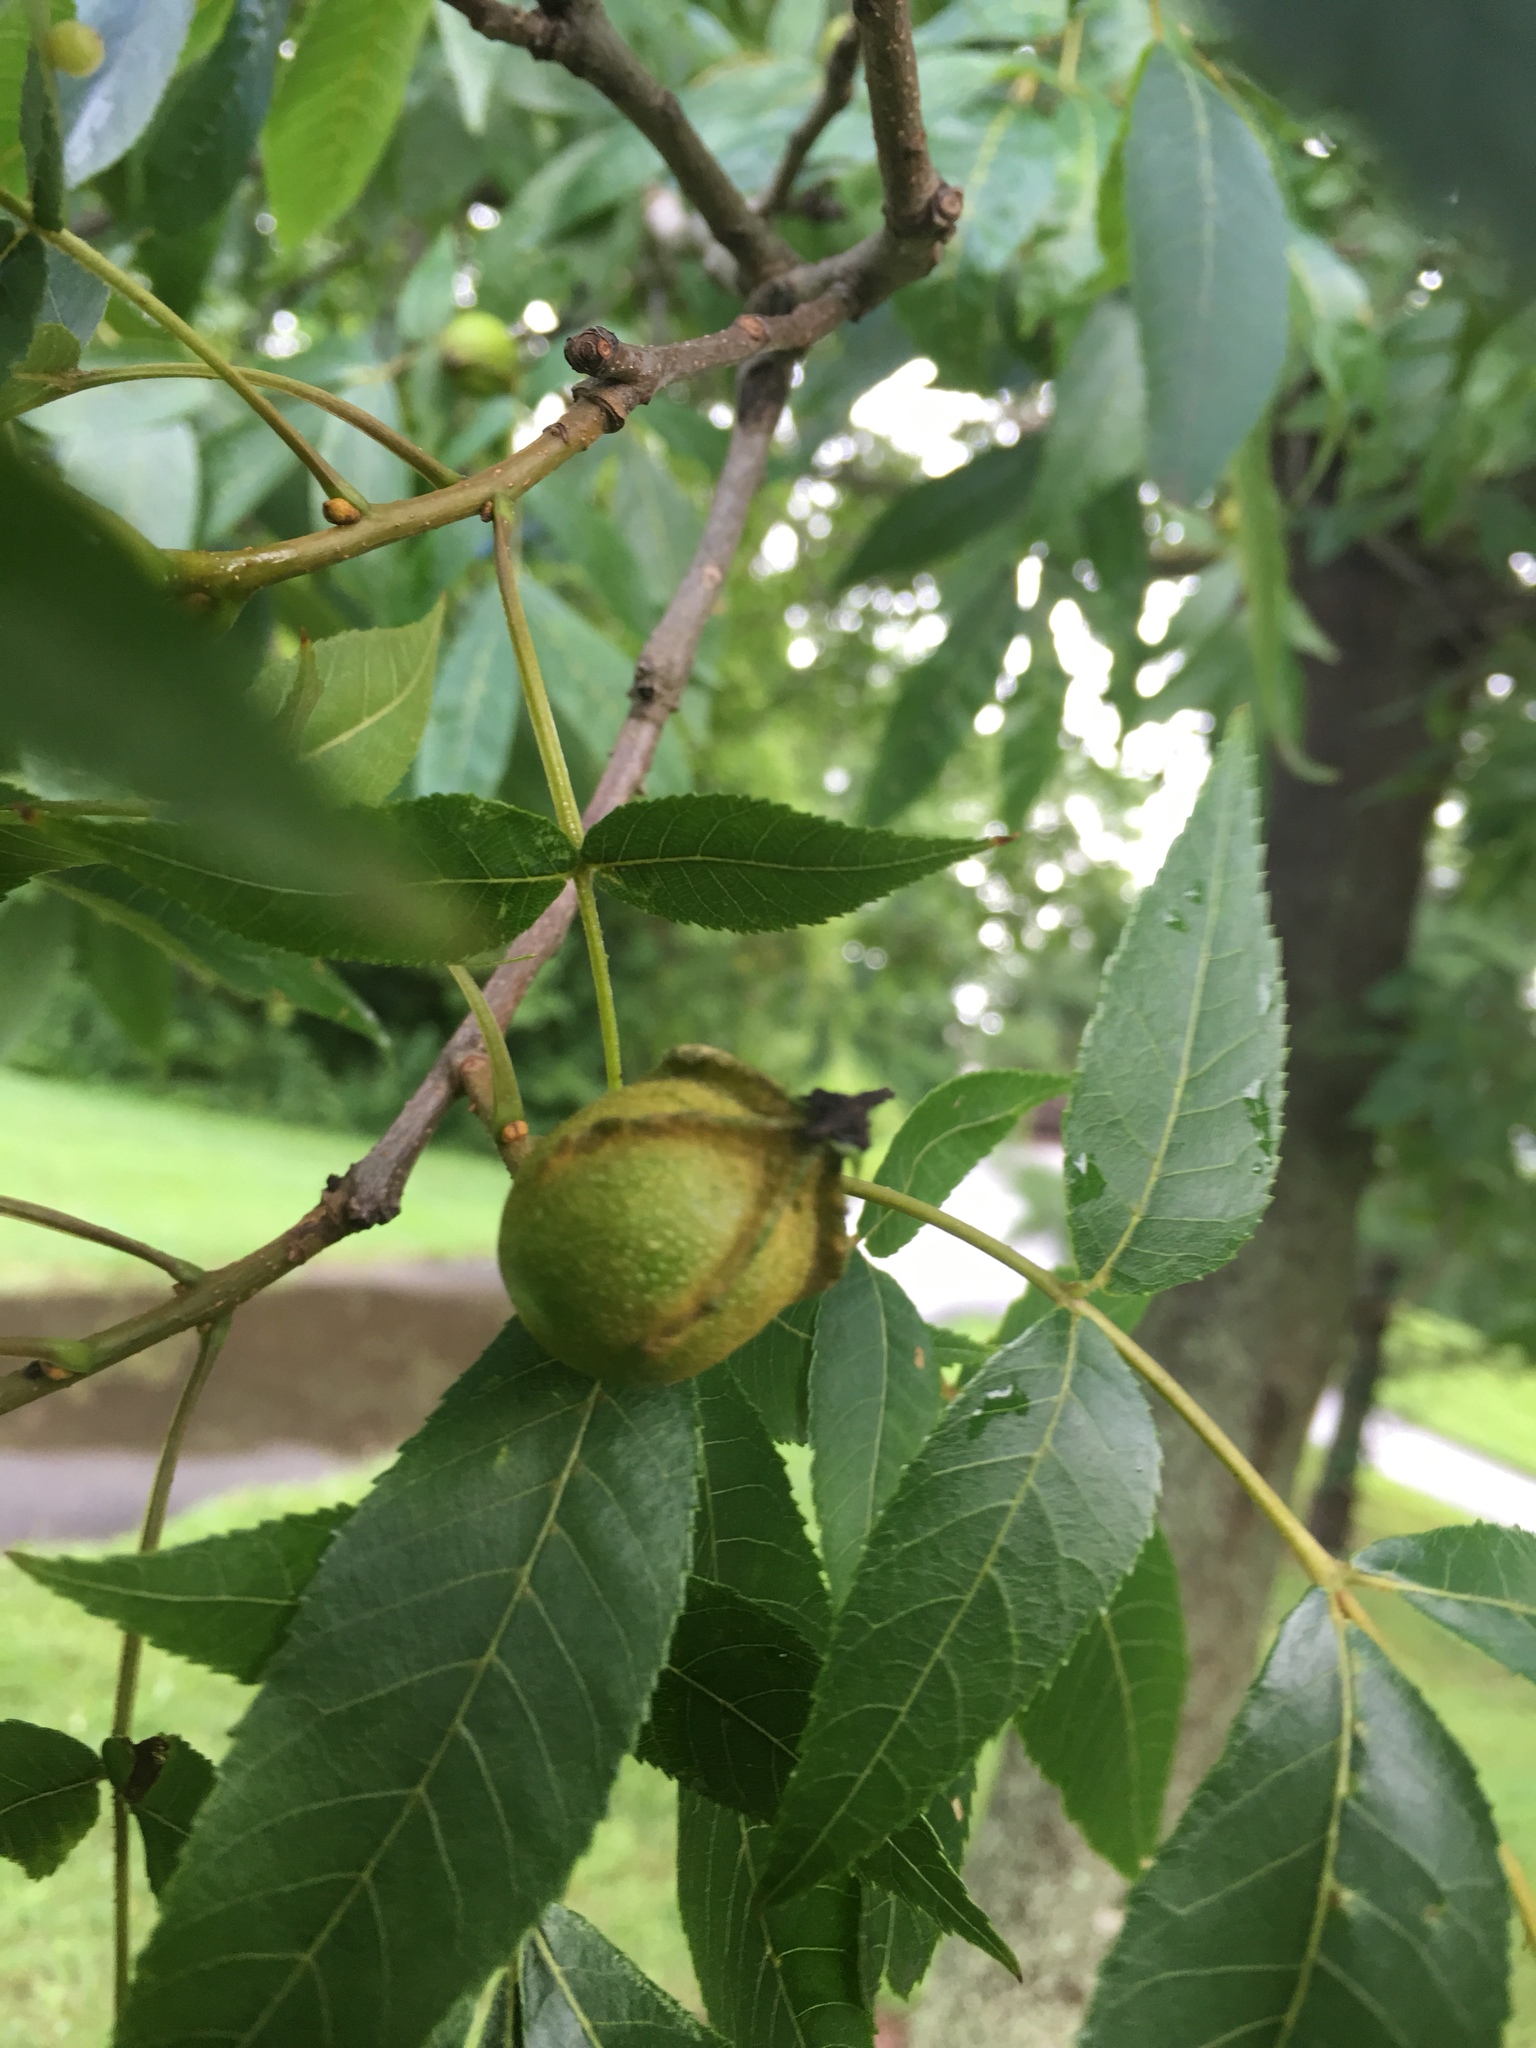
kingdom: Plantae
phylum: Tracheophyta
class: Magnoliopsida
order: Fagales
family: Juglandaceae
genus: Carya
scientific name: Carya cordiformis
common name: Bitternut hickory
